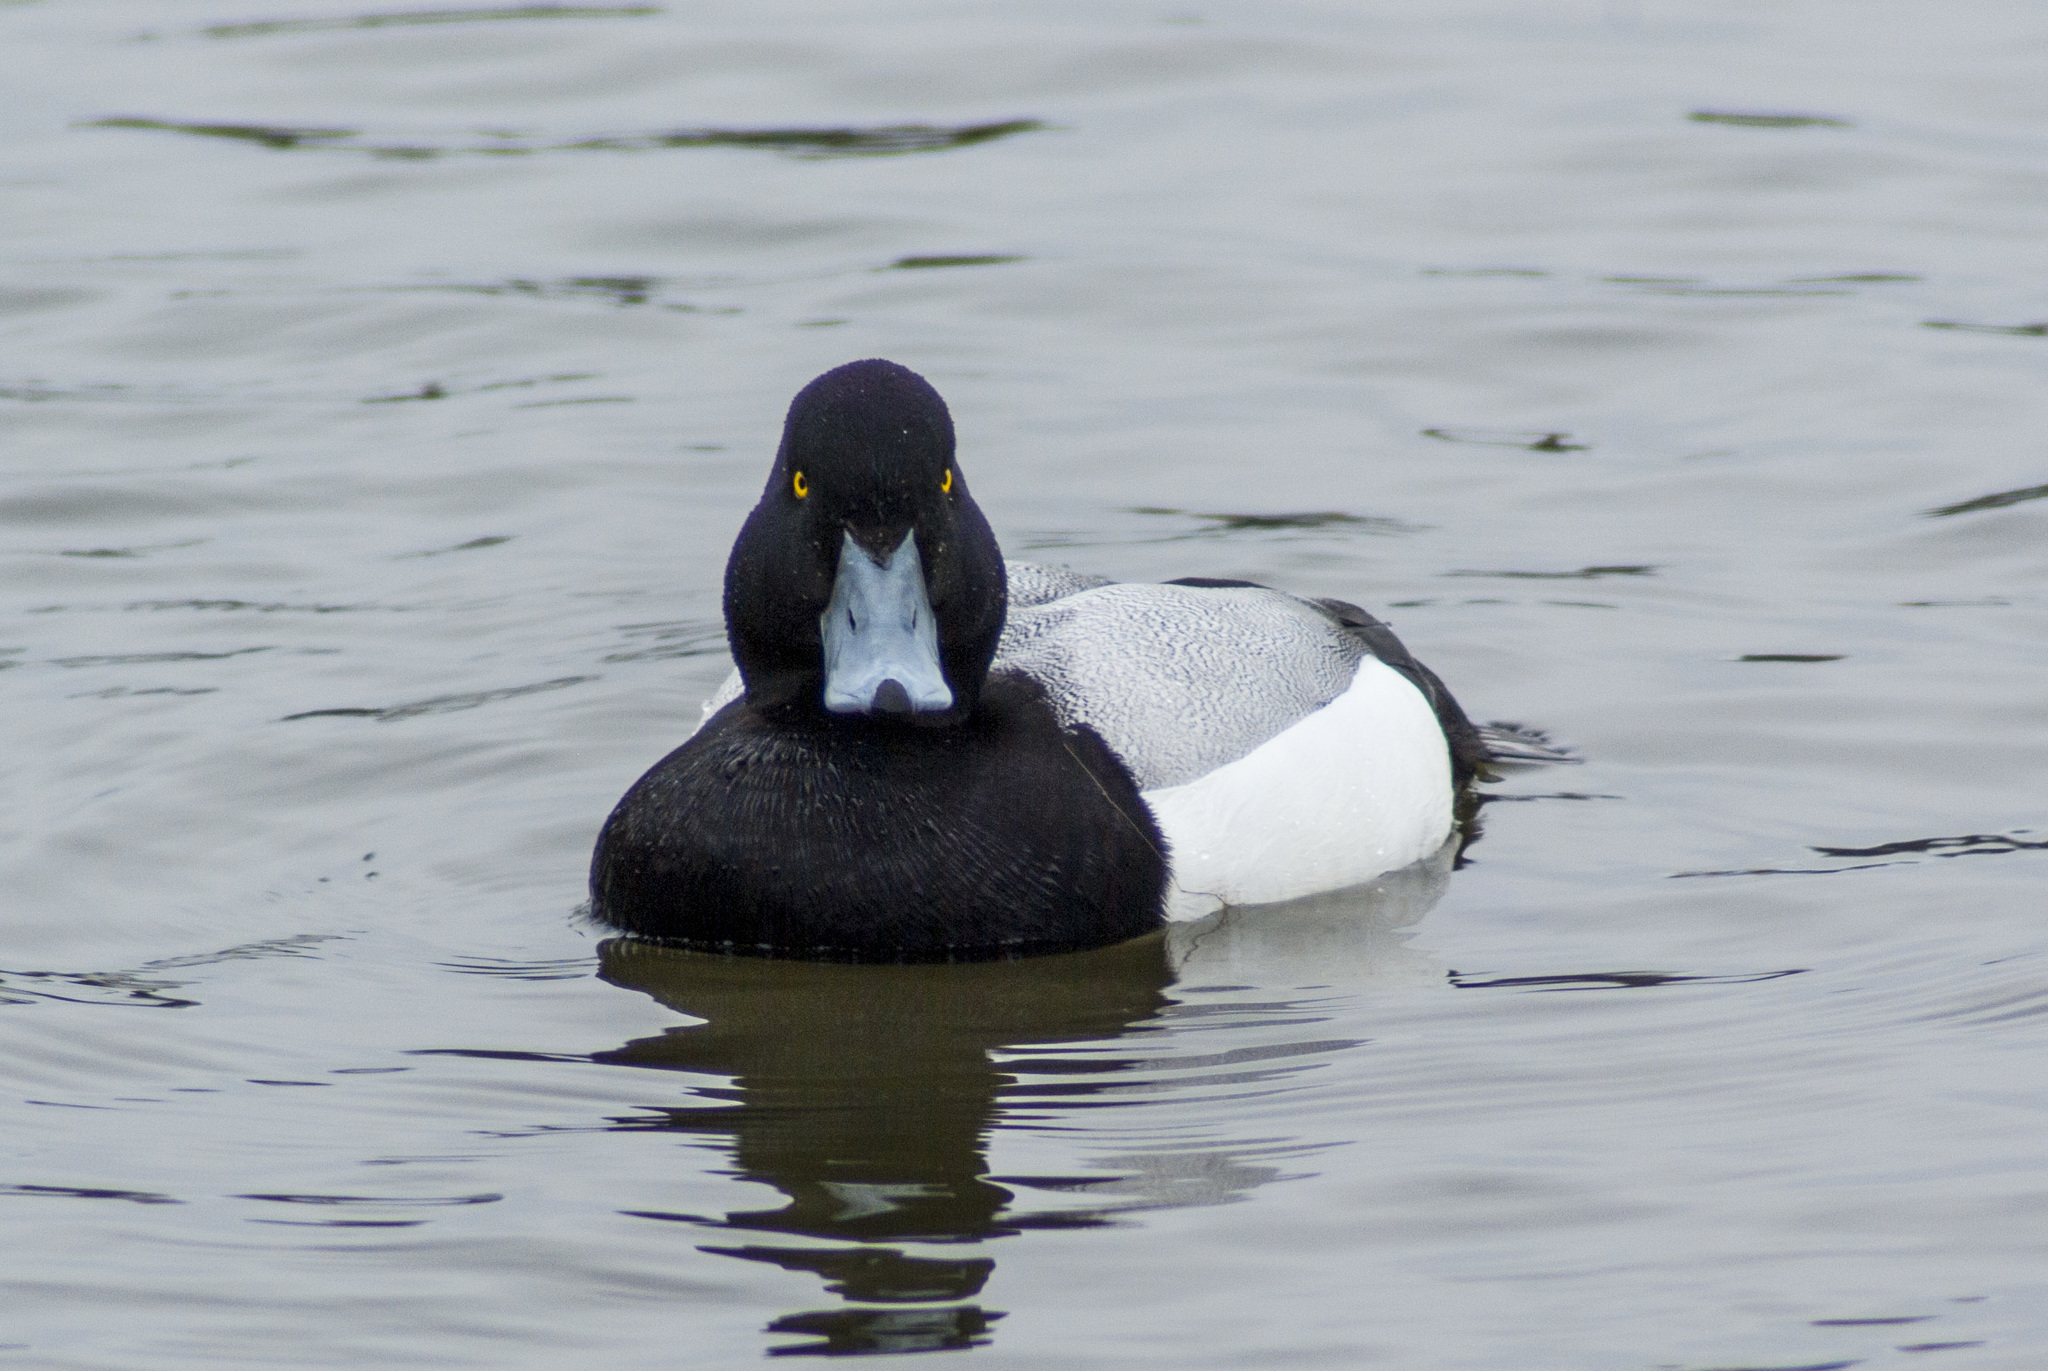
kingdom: Animalia
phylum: Chordata
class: Aves
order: Anseriformes
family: Anatidae
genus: Aythya
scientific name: Aythya marila
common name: Greater scaup
